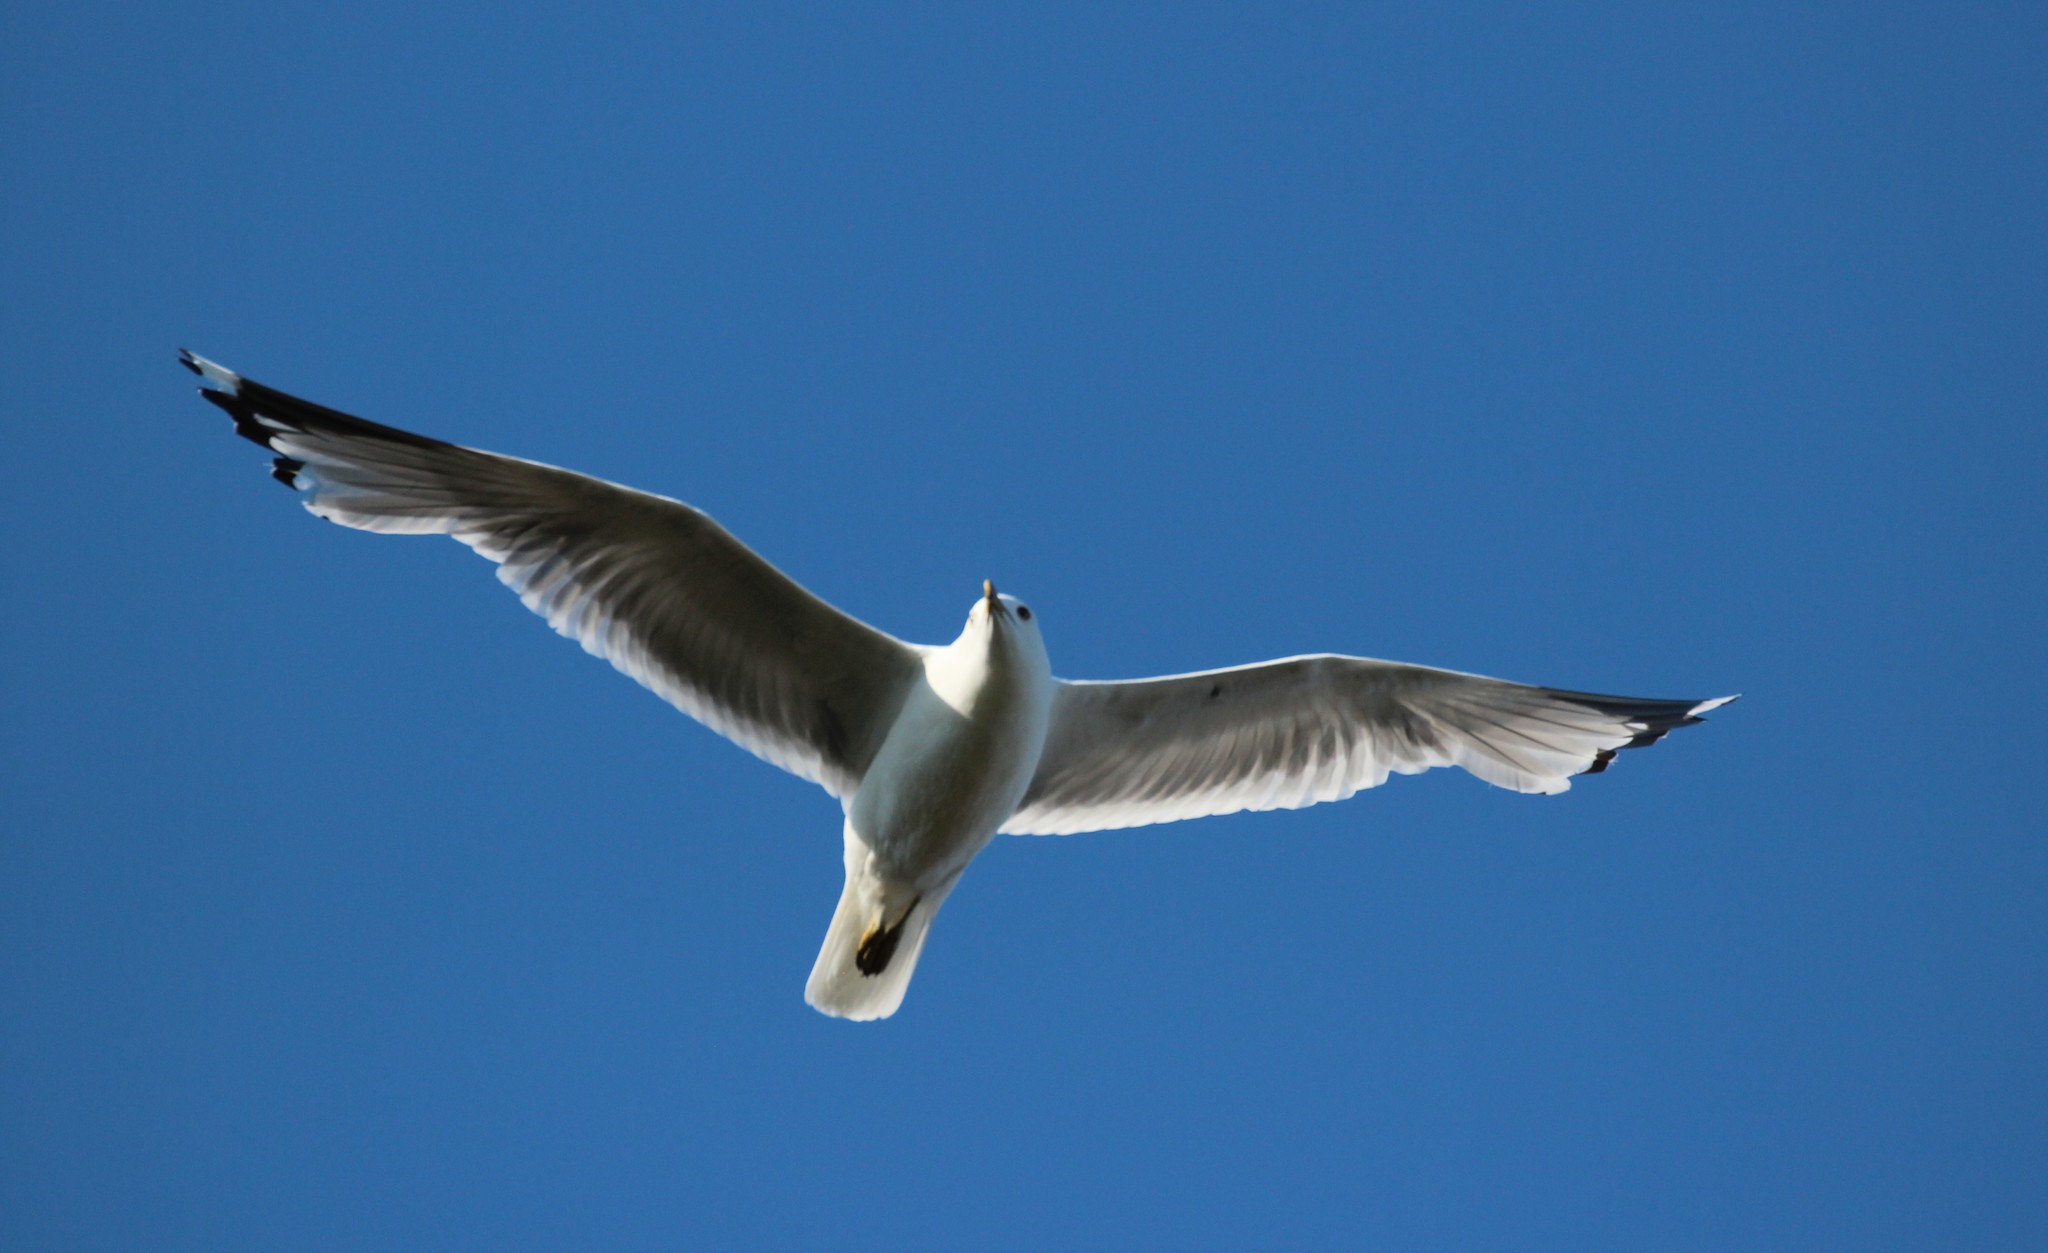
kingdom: Animalia
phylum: Chordata
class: Aves
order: Charadriiformes
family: Laridae
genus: Larus
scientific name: Larus delawarensis
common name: Ring-billed gull
